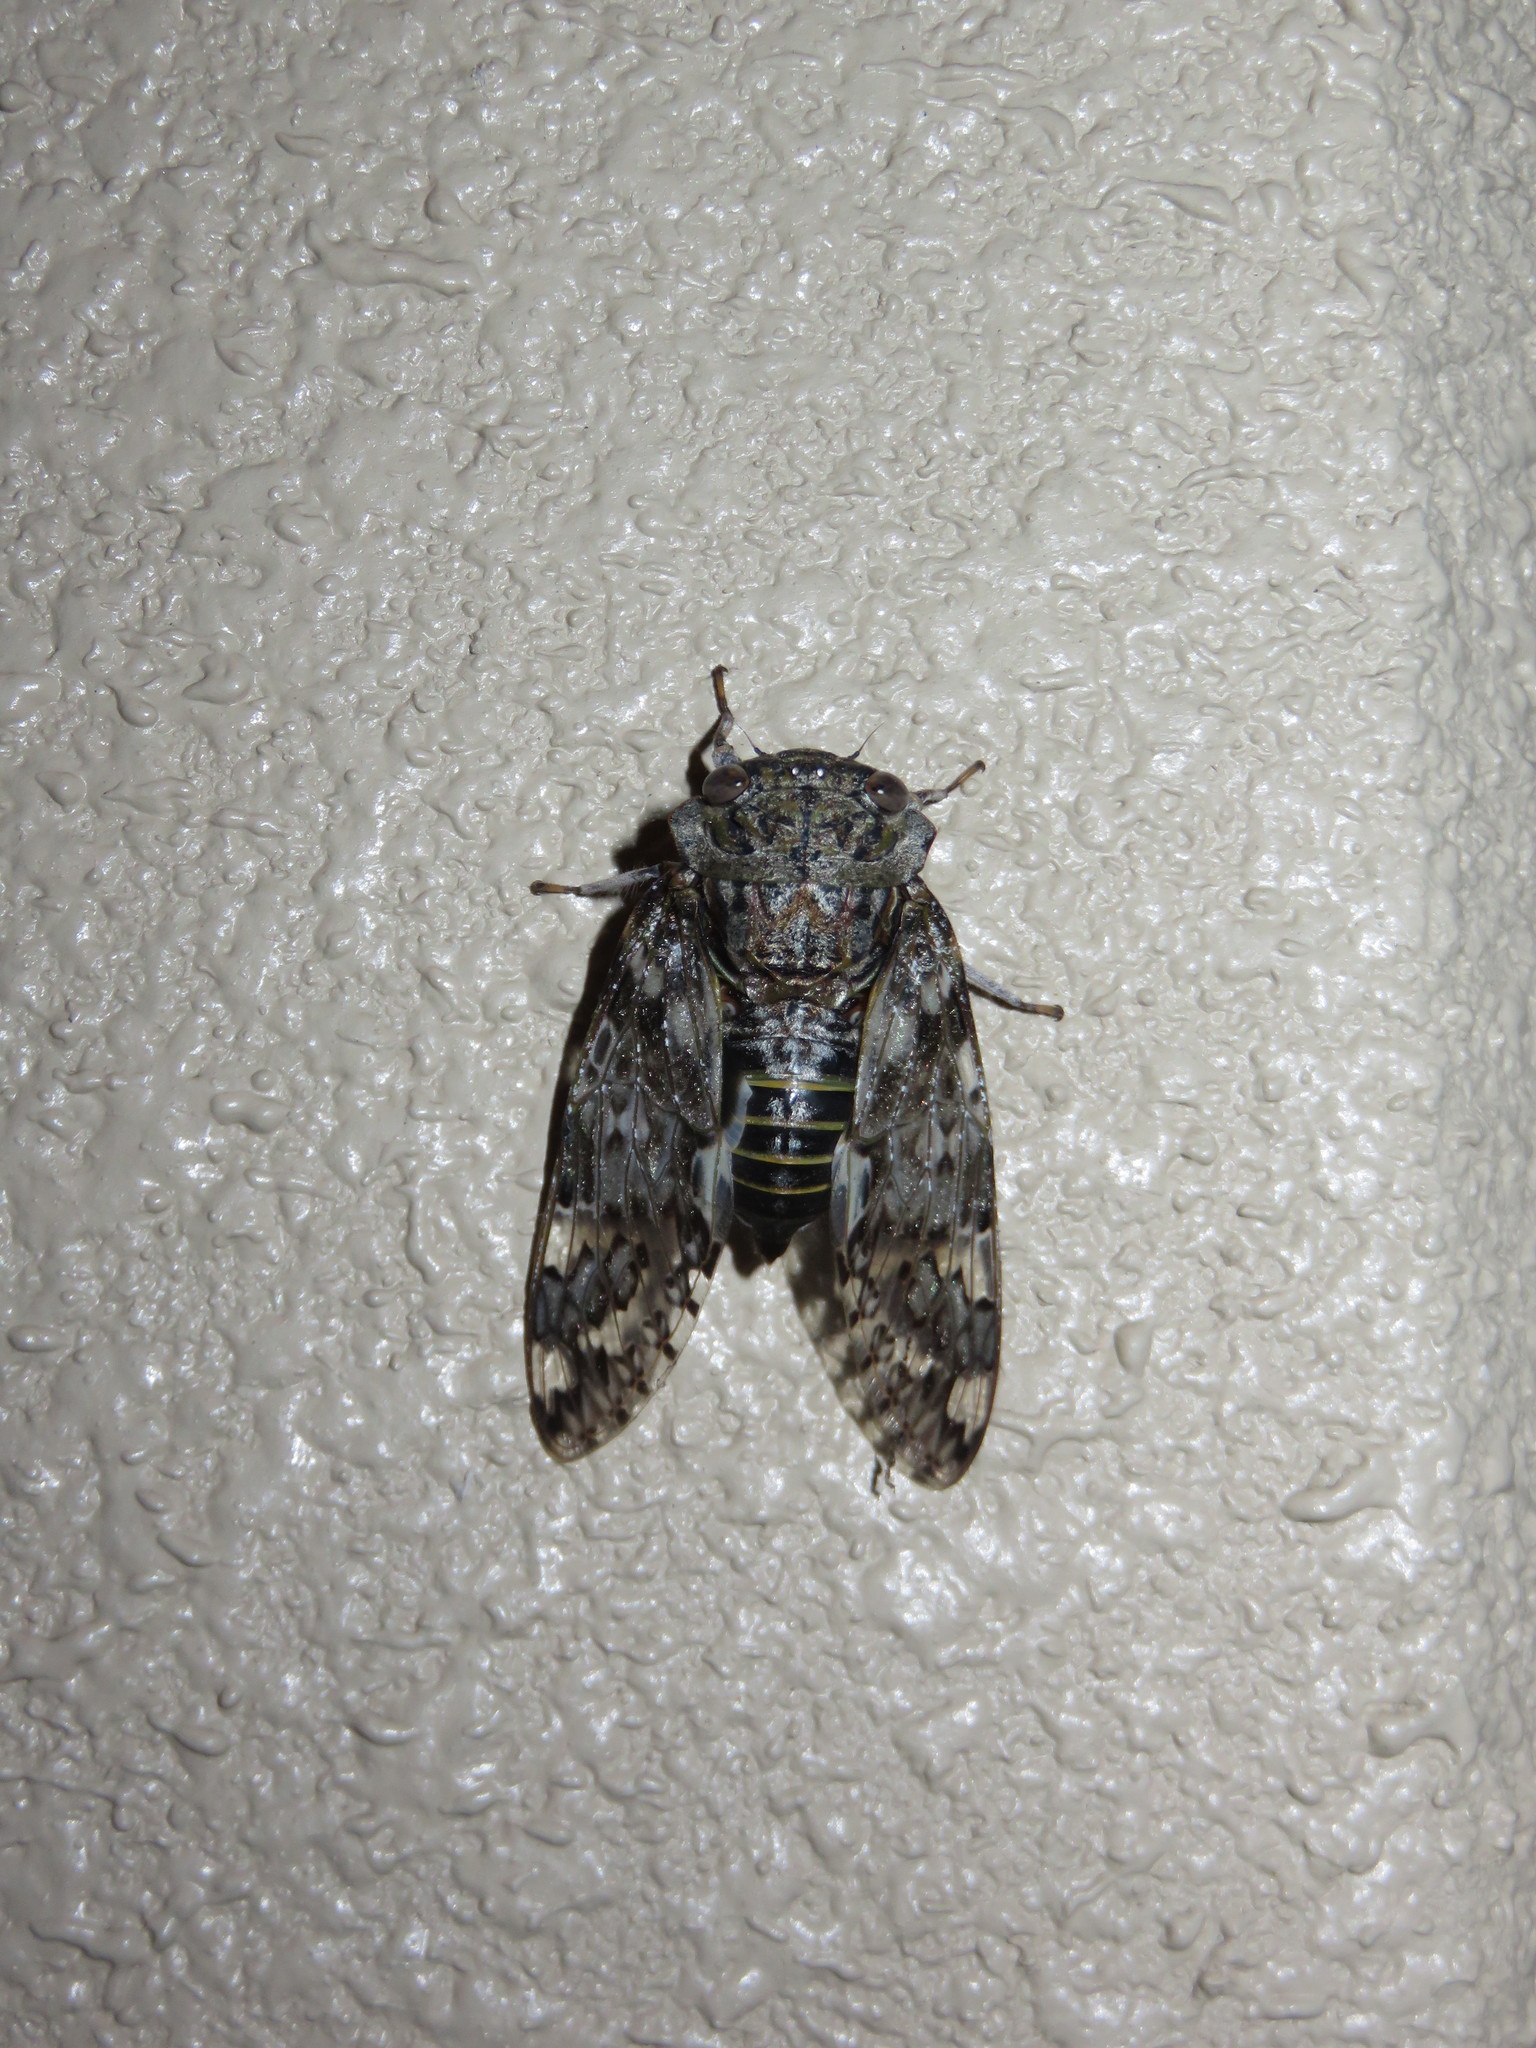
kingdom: Animalia
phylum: Arthropoda
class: Insecta
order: Hemiptera
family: Cicadidae
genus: Platypleura
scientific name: Platypleura kaempferi
